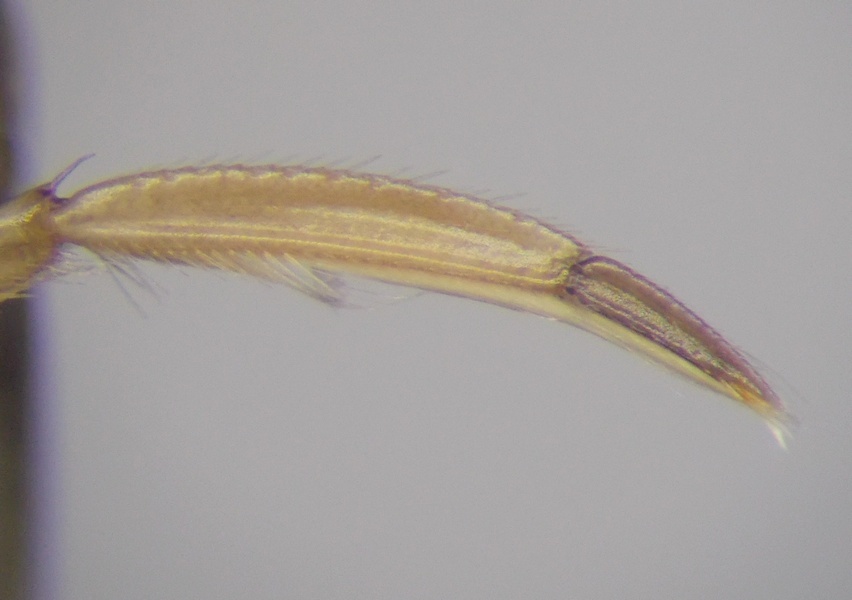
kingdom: Animalia
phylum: Arthropoda
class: Insecta
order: Hemiptera
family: Corixidae
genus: Sigara
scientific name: Sigara lateralis
